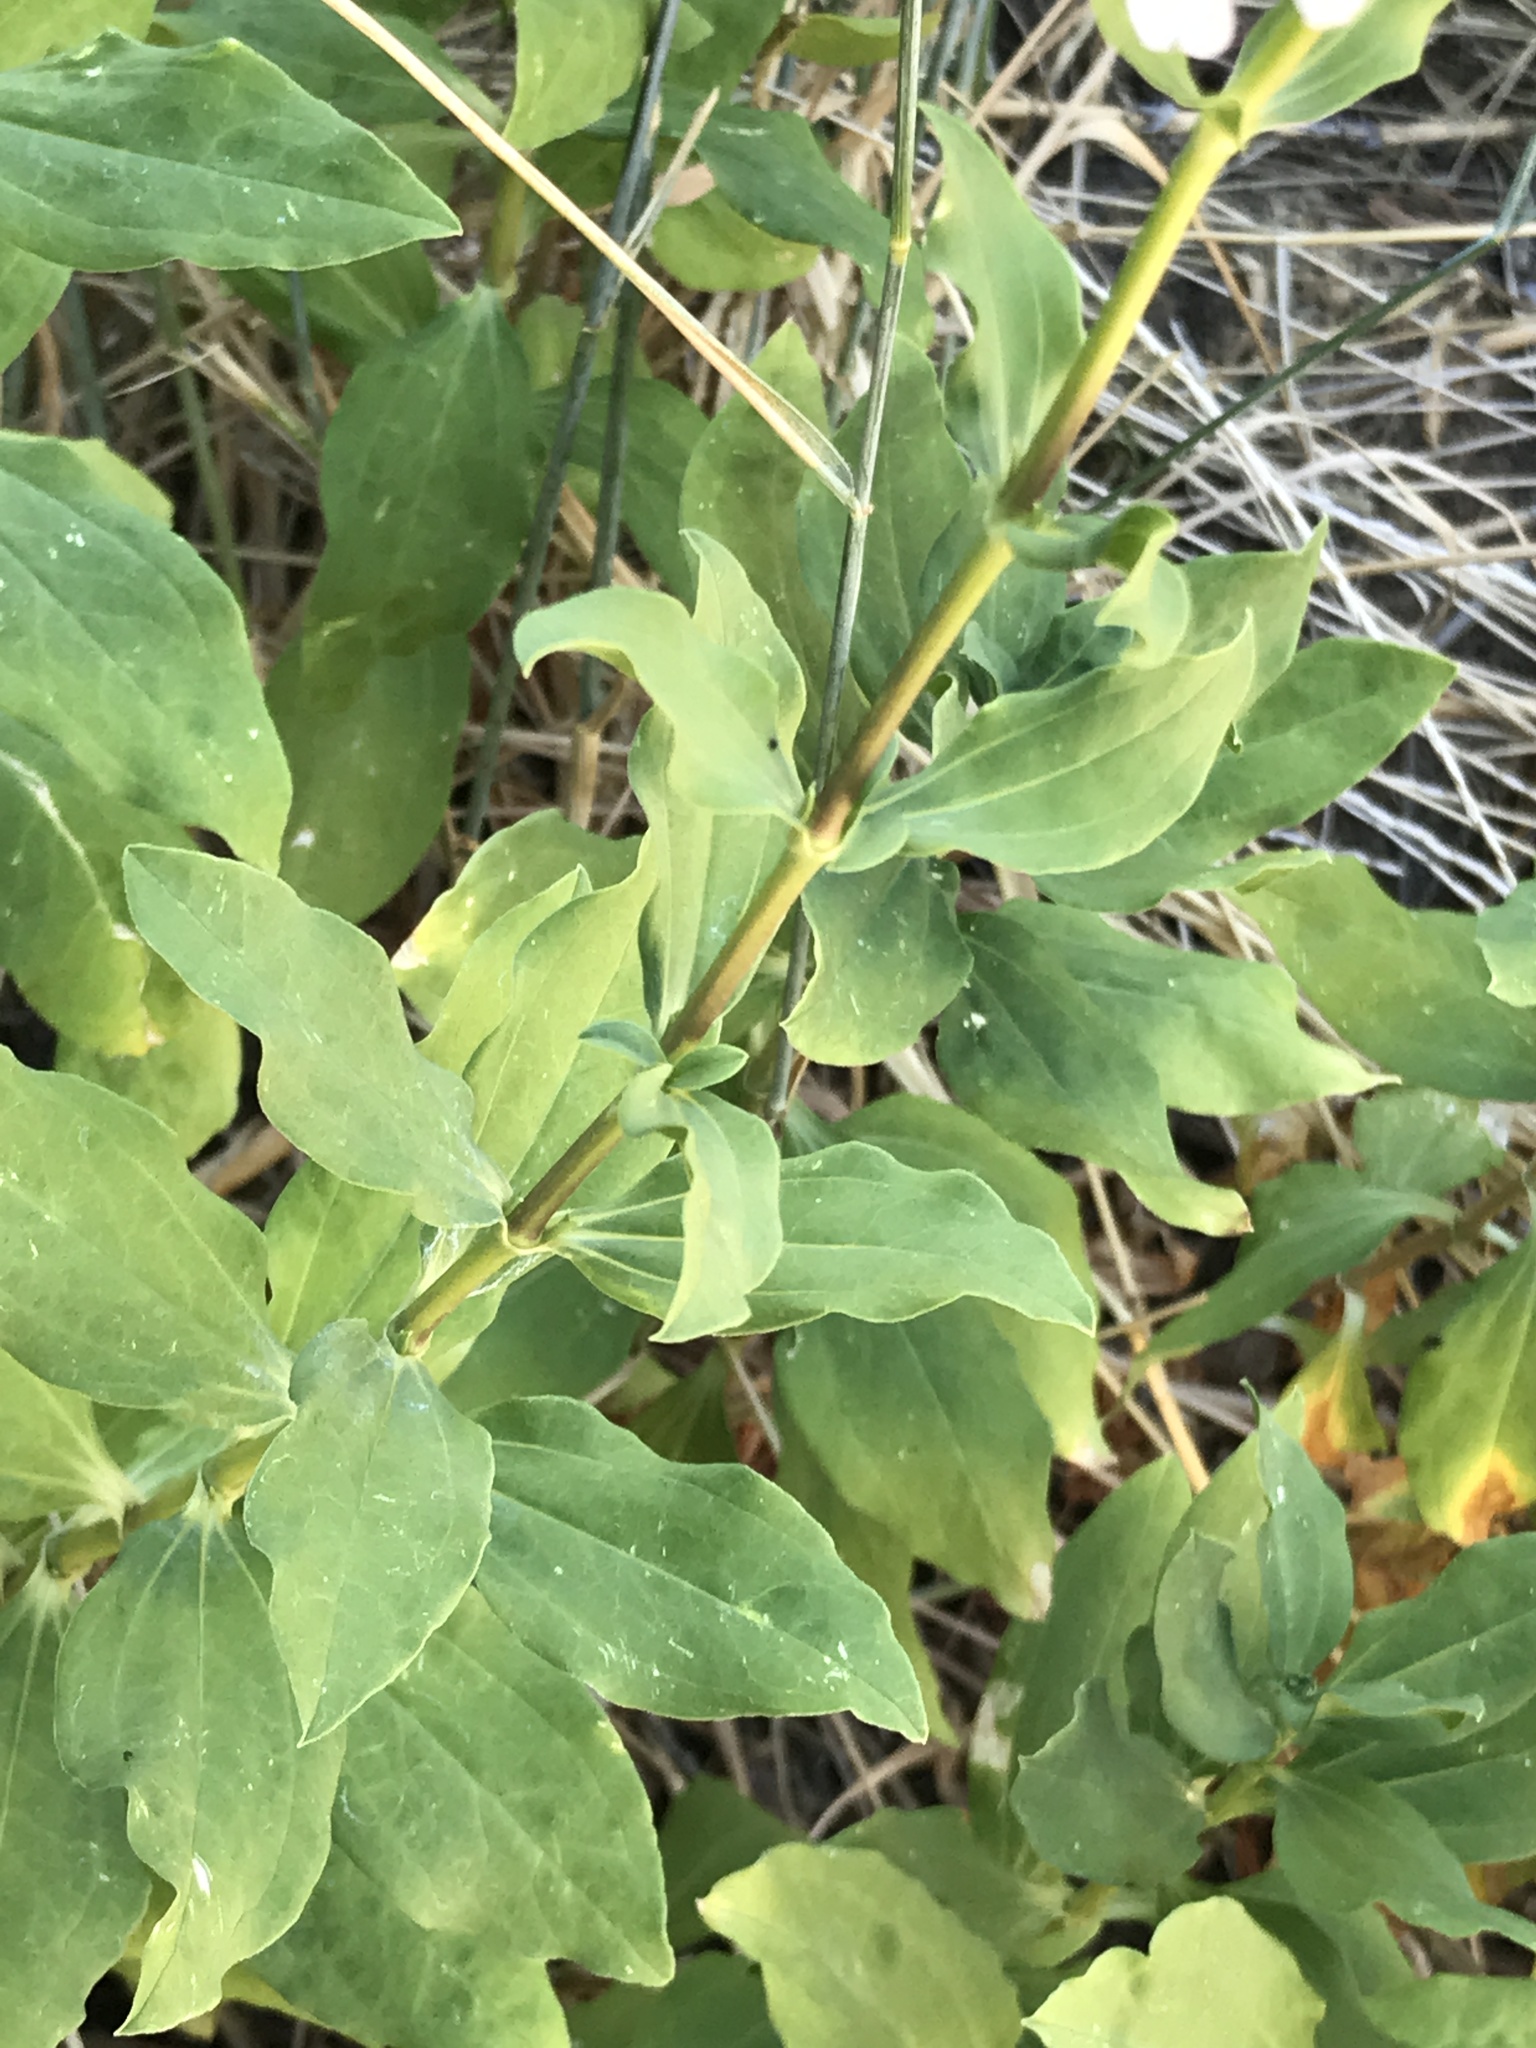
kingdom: Plantae
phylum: Tracheophyta
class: Magnoliopsida
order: Caryophyllales
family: Caryophyllaceae
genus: Saponaria
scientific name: Saponaria officinalis
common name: Soapwort
